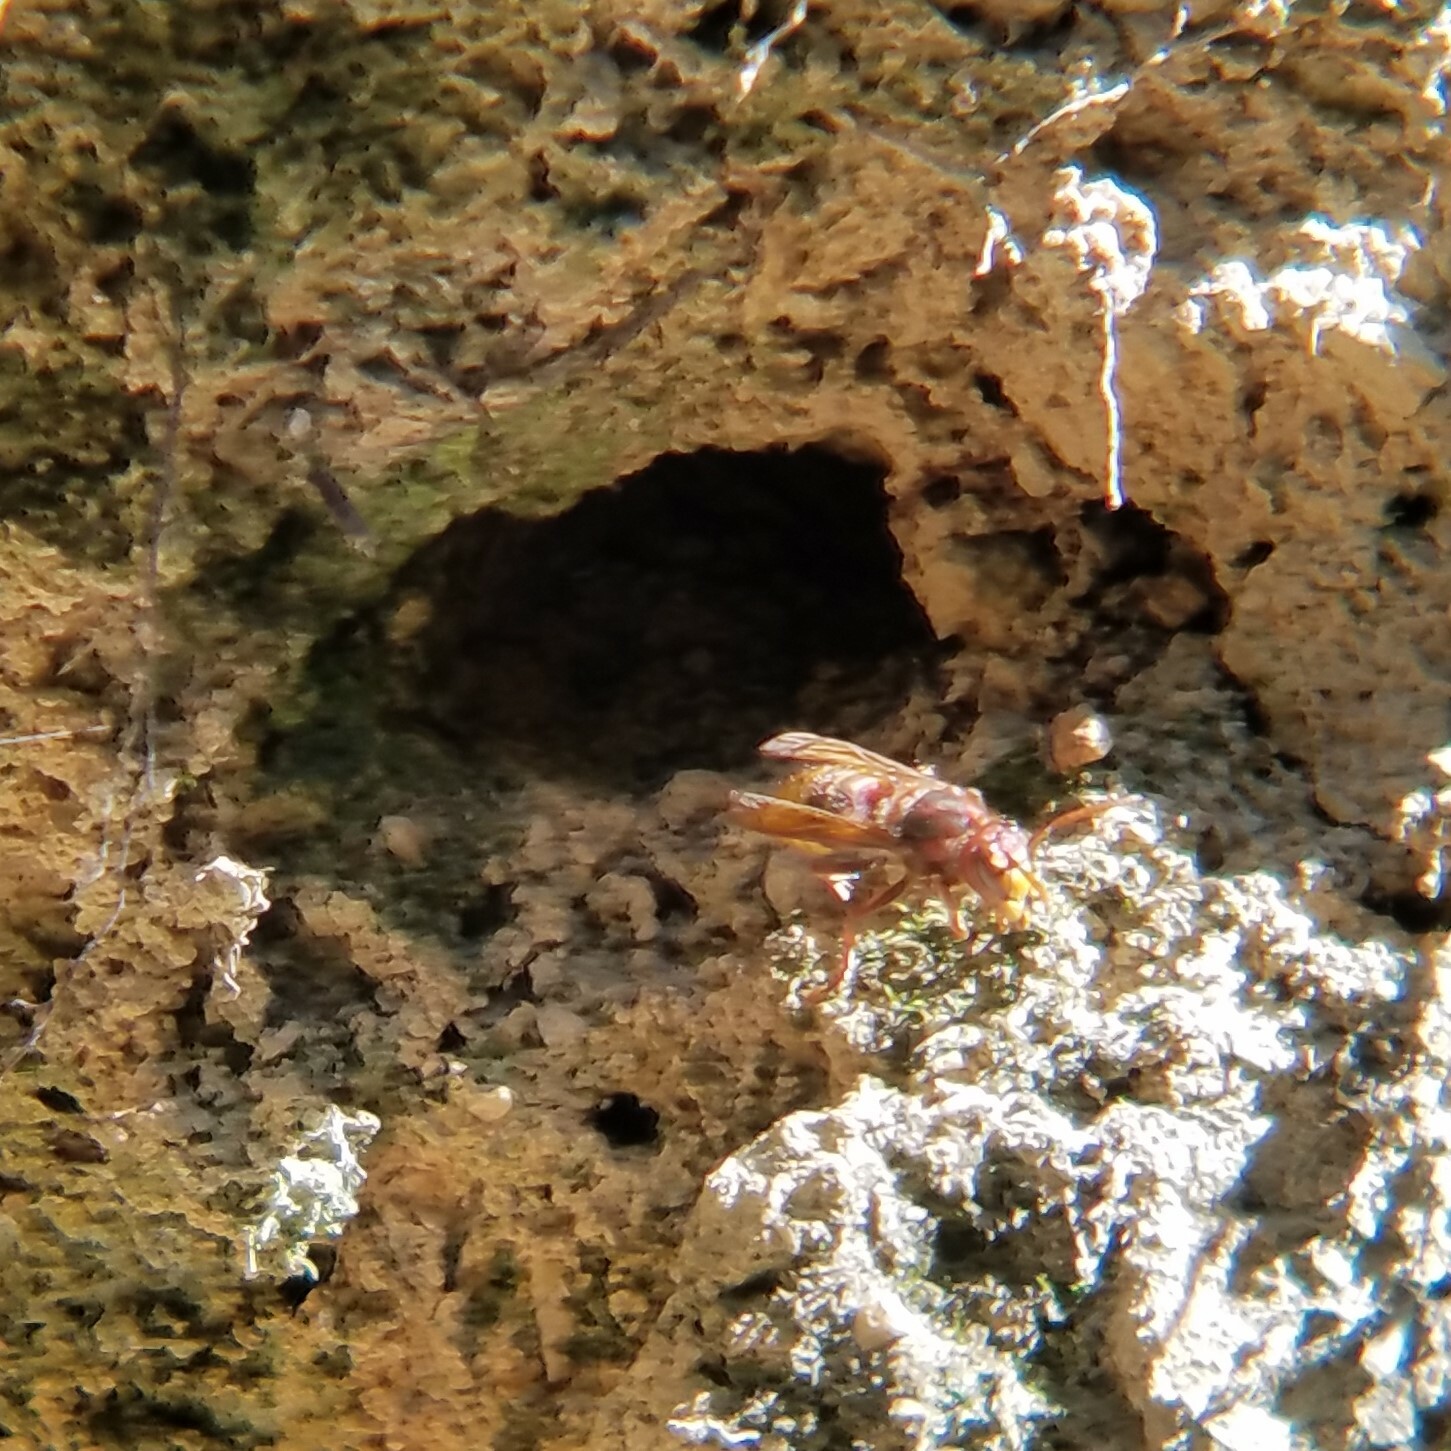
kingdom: Animalia
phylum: Arthropoda
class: Insecta
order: Hymenoptera
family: Vespidae
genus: Vespa
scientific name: Vespa crabro
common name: Hornet
